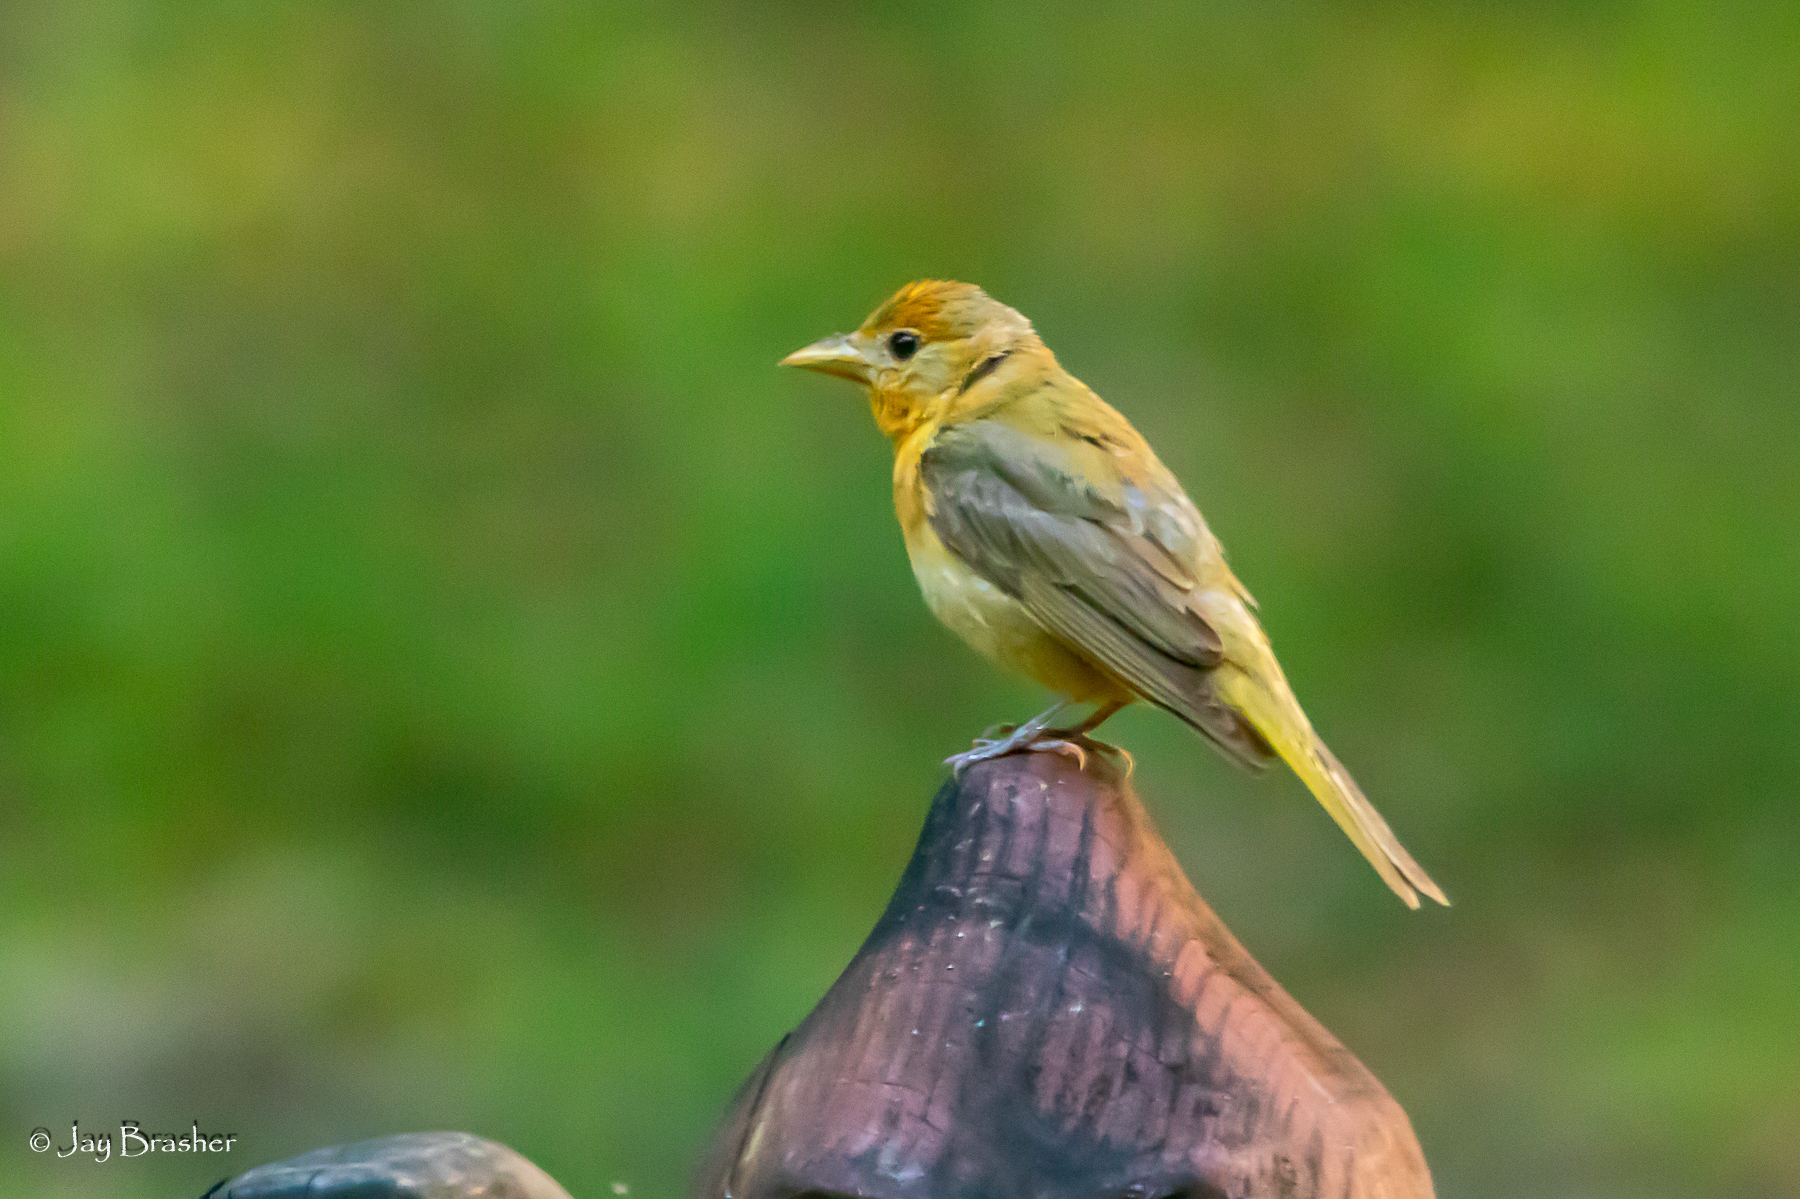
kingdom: Animalia
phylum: Chordata
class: Aves
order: Passeriformes
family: Cardinalidae
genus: Piranga
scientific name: Piranga rubra
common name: Summer tanager
